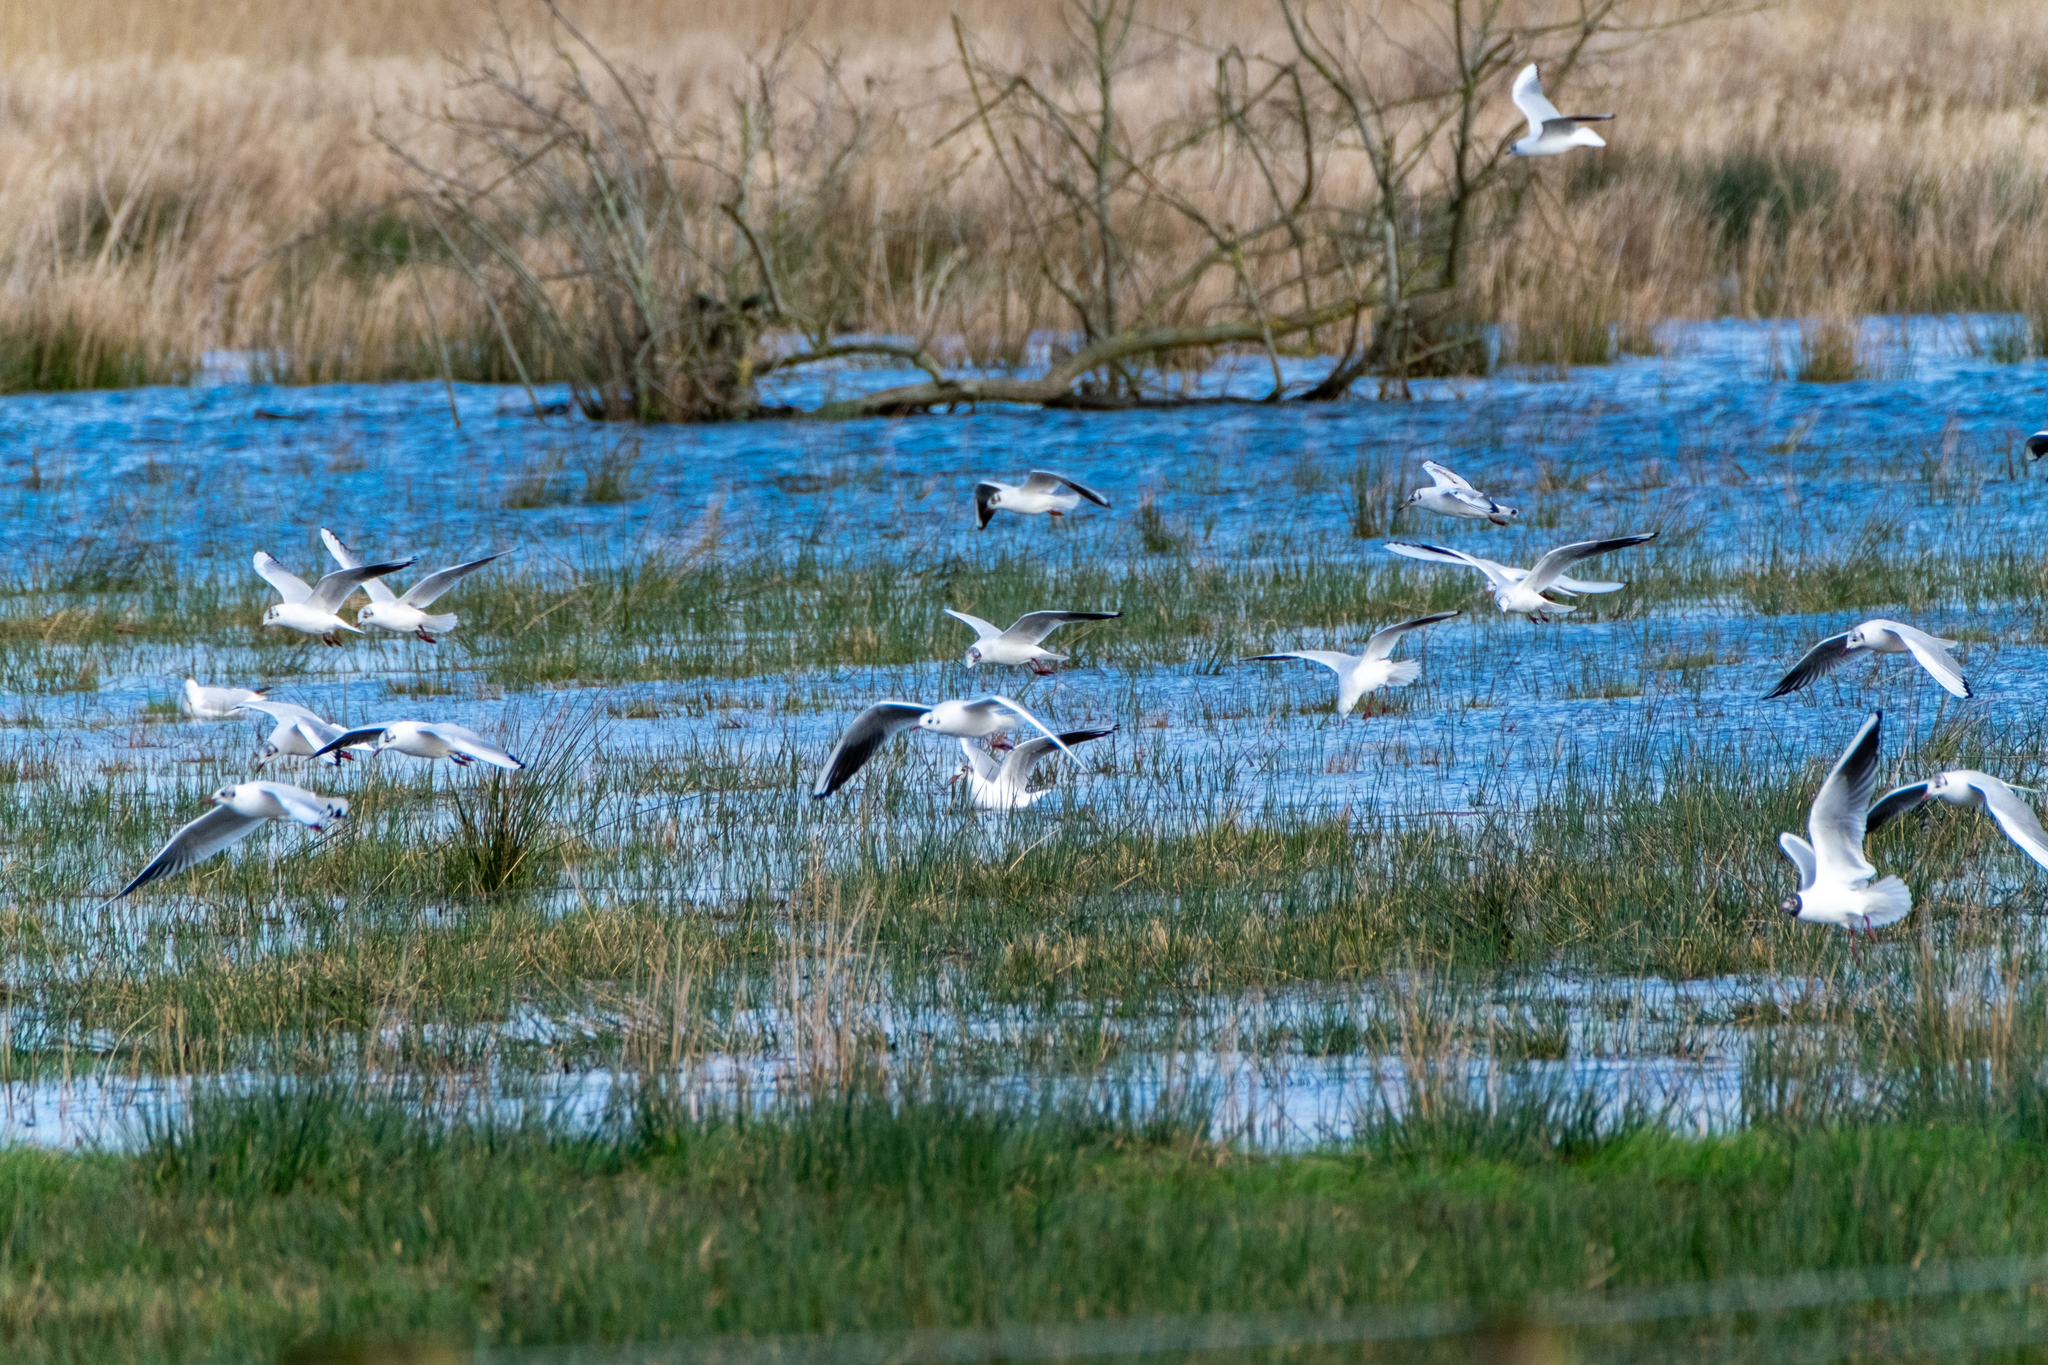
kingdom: Animalia
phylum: Chordata
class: Aves
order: Charadriiformes
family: Laridae
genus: Chroicocephalus
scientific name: Chroicocephalus ridibundus
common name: Black-headed gull
